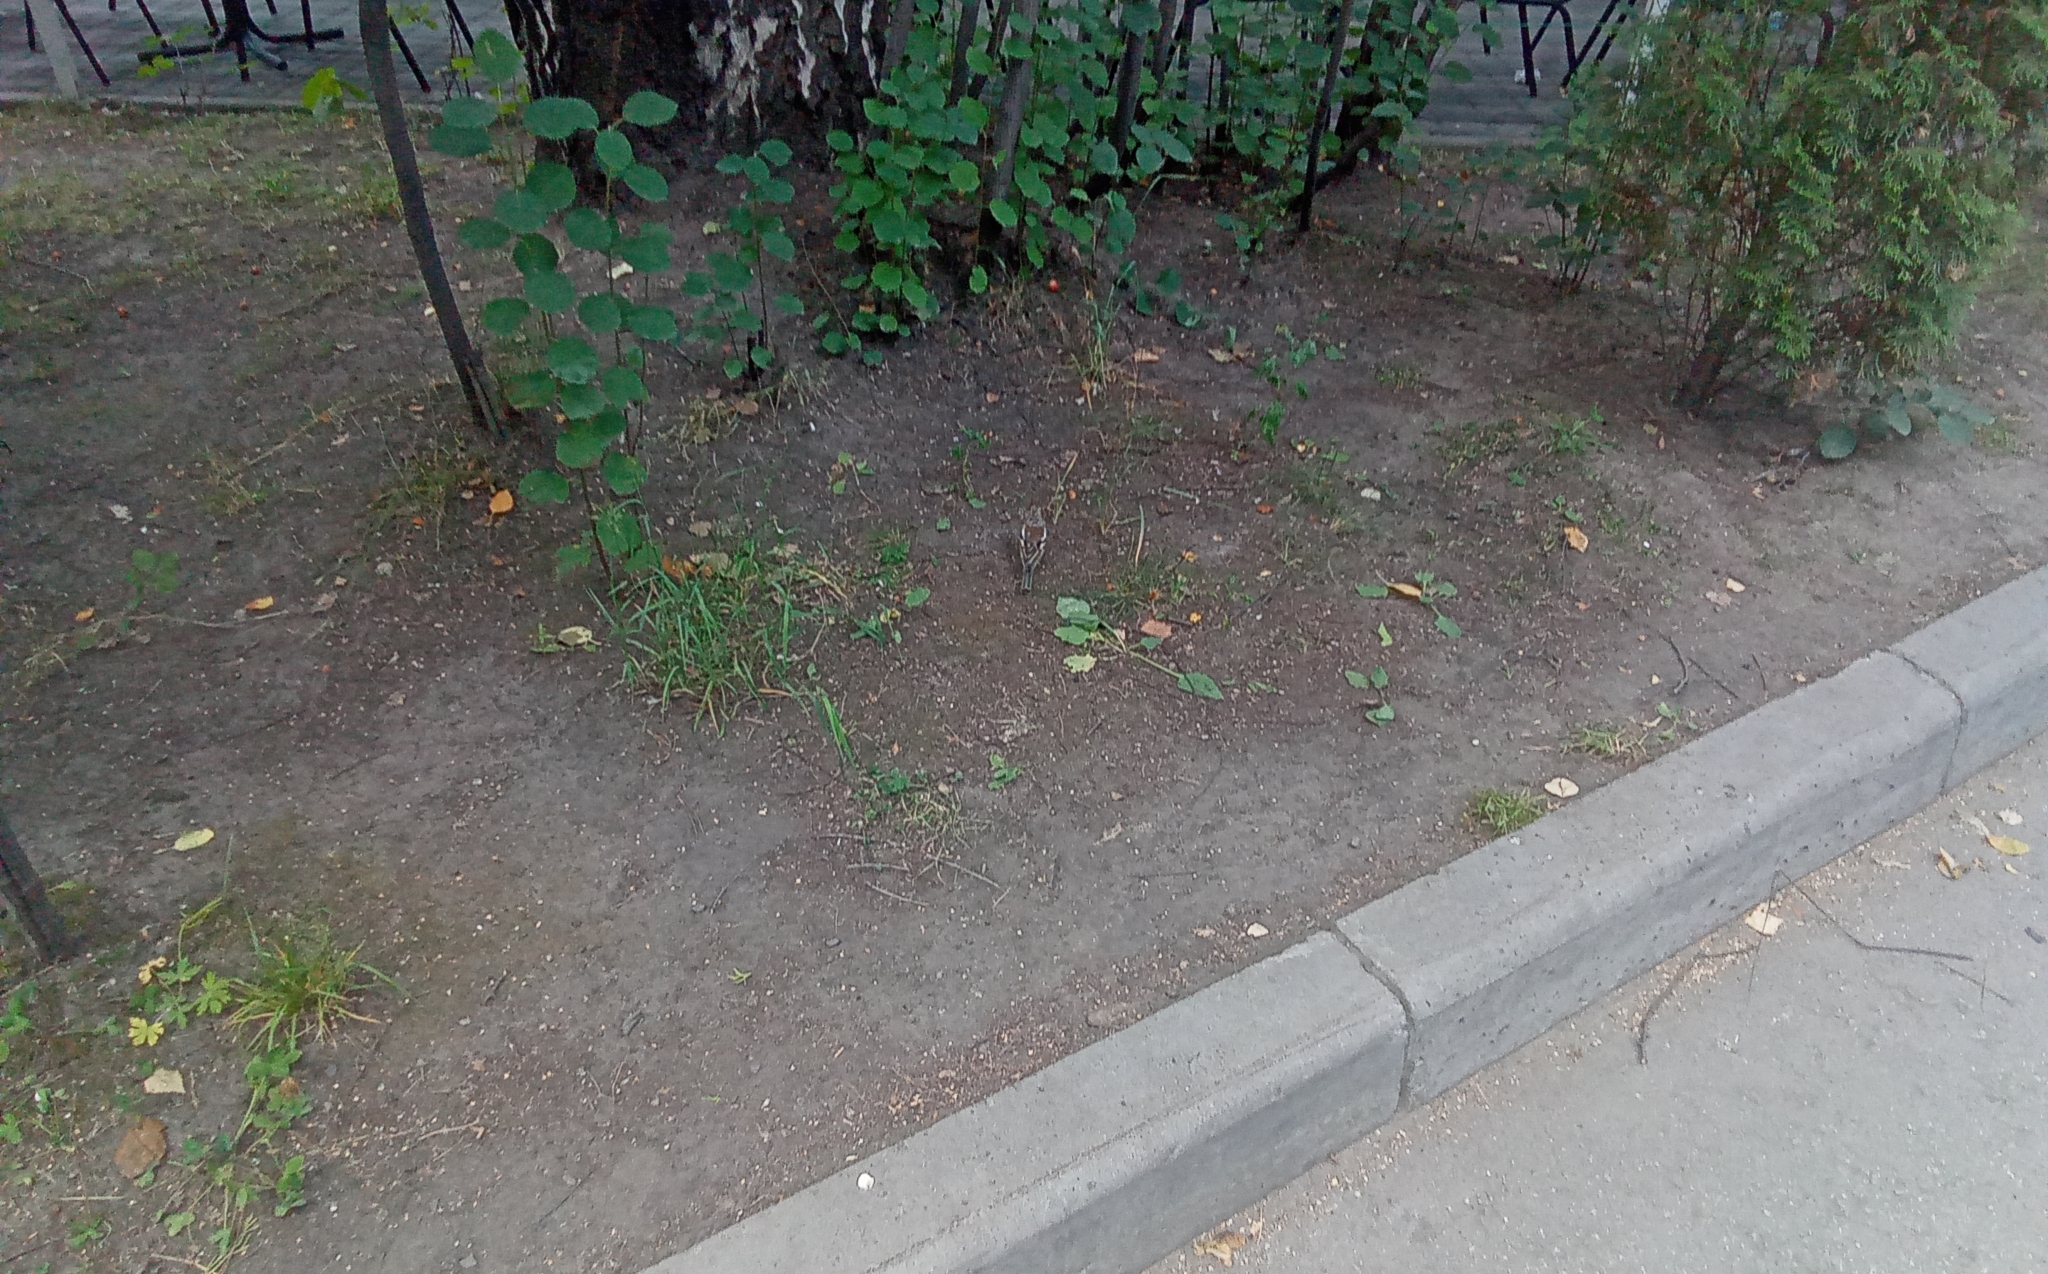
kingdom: Animalia
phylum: Chordata
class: Aves
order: Passeriformes
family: Fringillidae
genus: Fringilla
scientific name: Fringilla coelebs
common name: Common chaffinch
